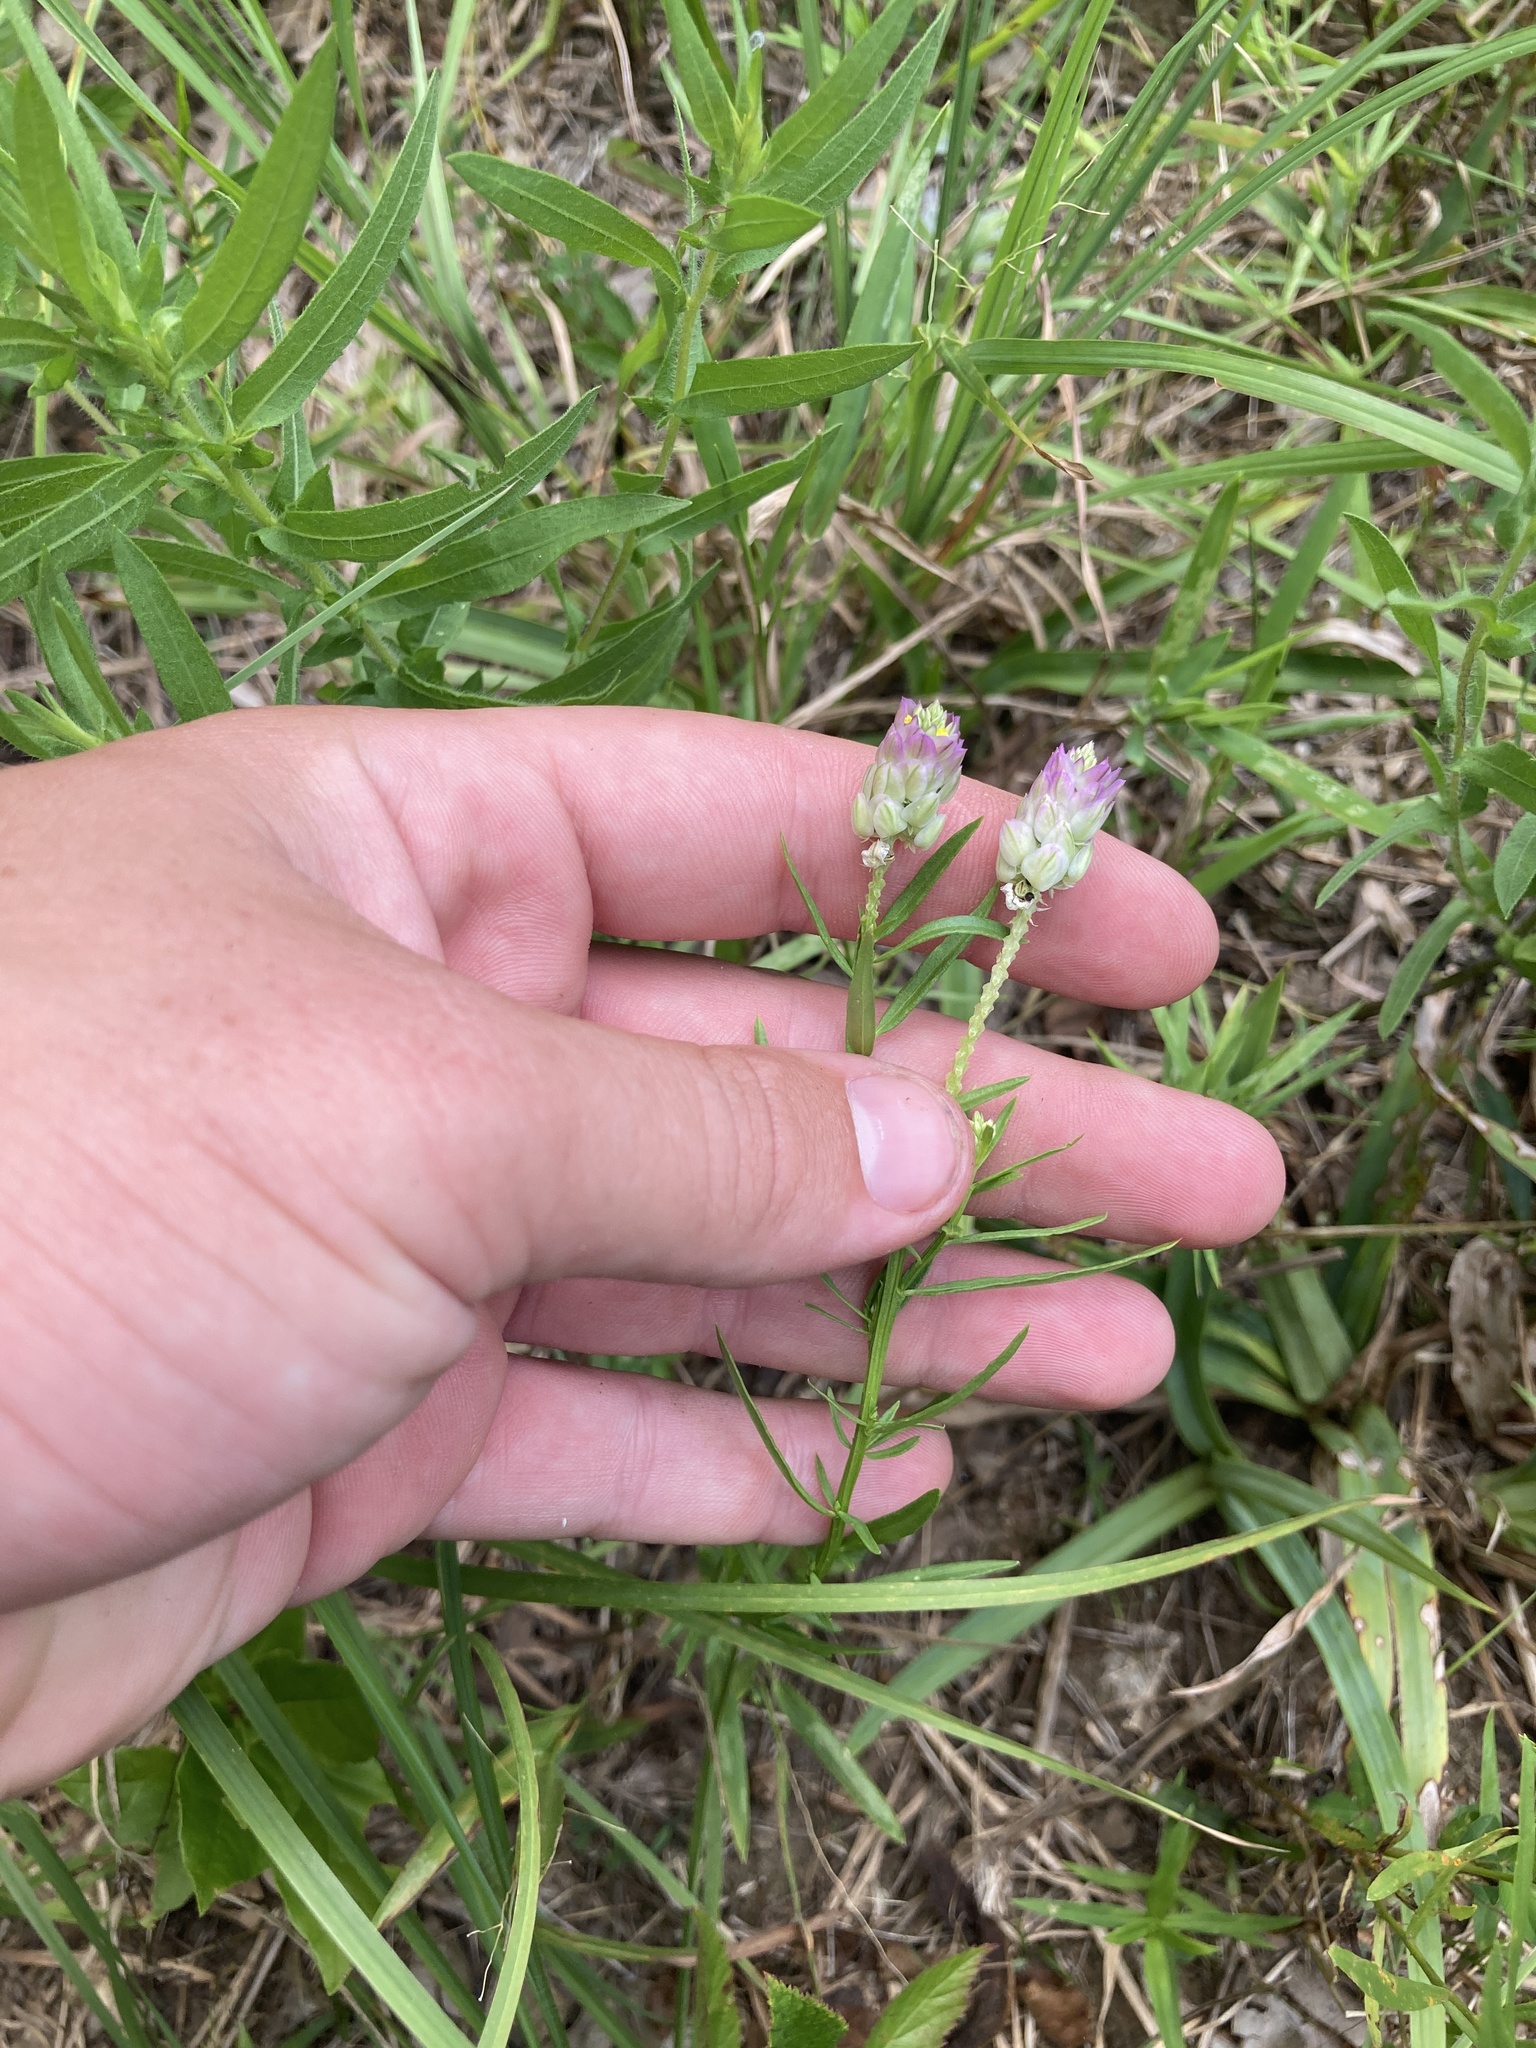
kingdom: Plantae
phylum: Tracheophyta
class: Magnoliopsida
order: Fabales
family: Polygalaceae
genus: Polygala
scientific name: Polygala sanguinea
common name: Blood milkwort
